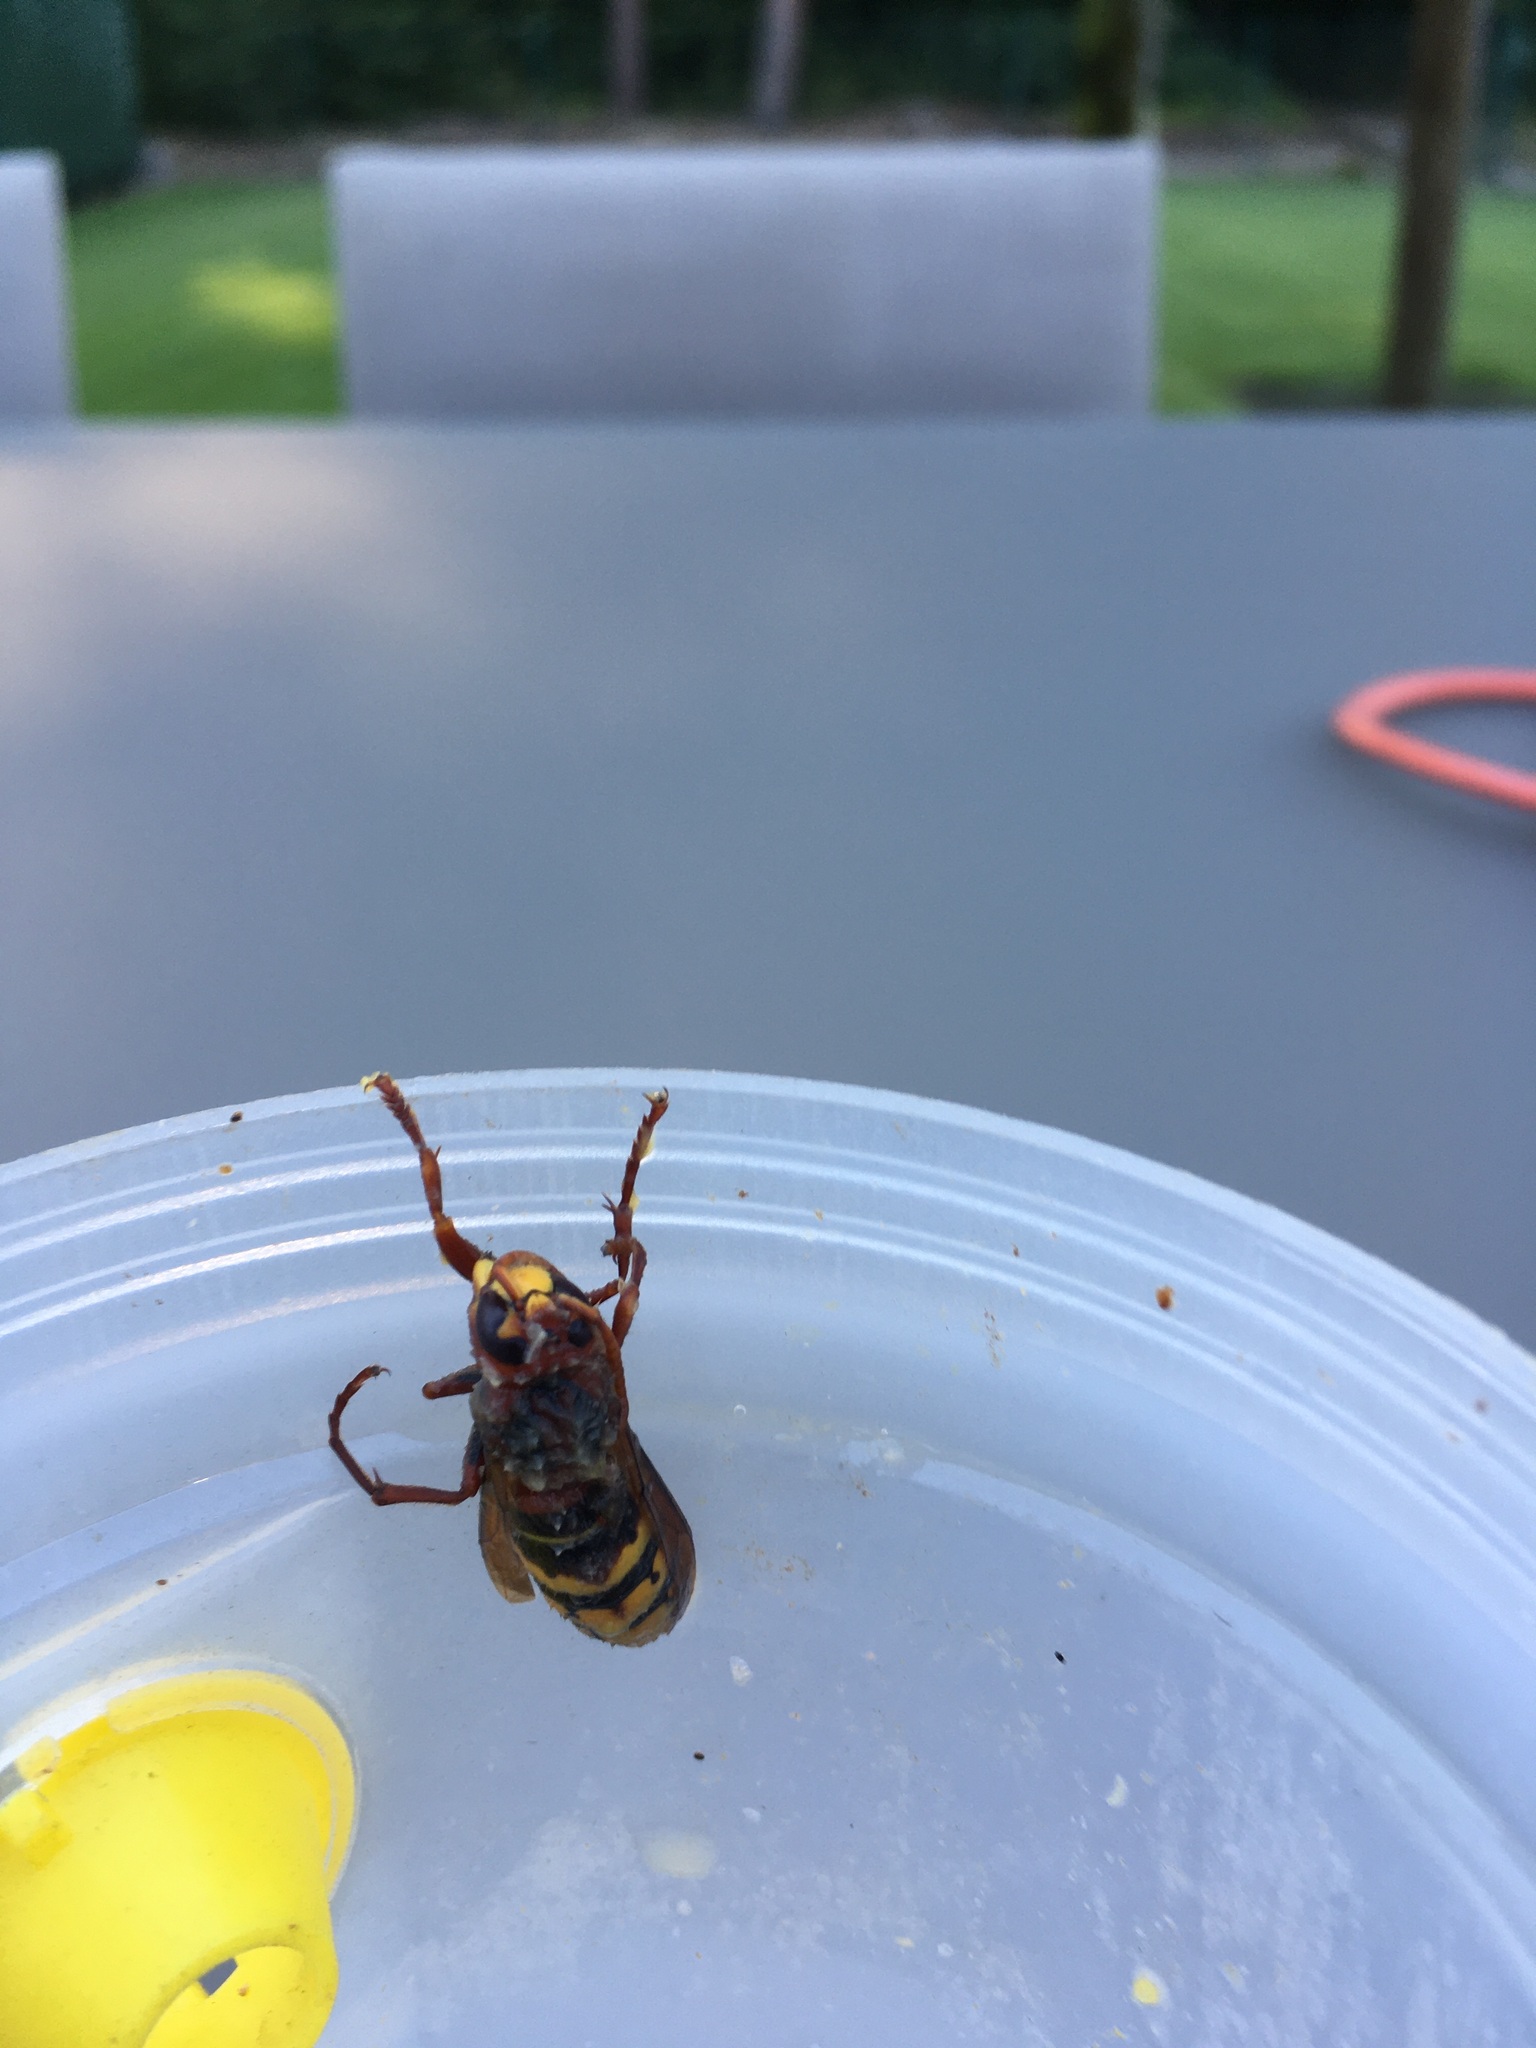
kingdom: Animalia
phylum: Arthropoda
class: Insecta
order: Hymenoptera
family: Vespidae
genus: Vespa
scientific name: Vespa crabro
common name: Hornet
